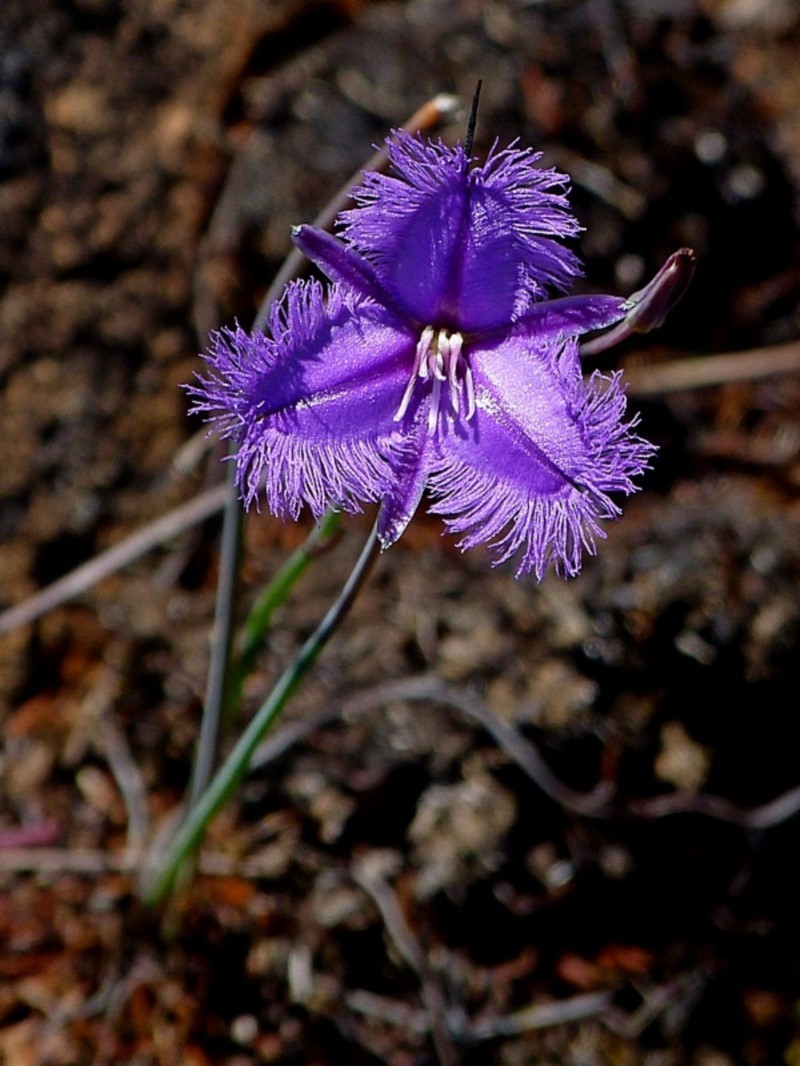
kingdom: Plantae
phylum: Tracheophyta
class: Liliopsida
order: Asparagales
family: Asparagaceae
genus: Thysanotus
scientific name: Thysanotus juncifolius
